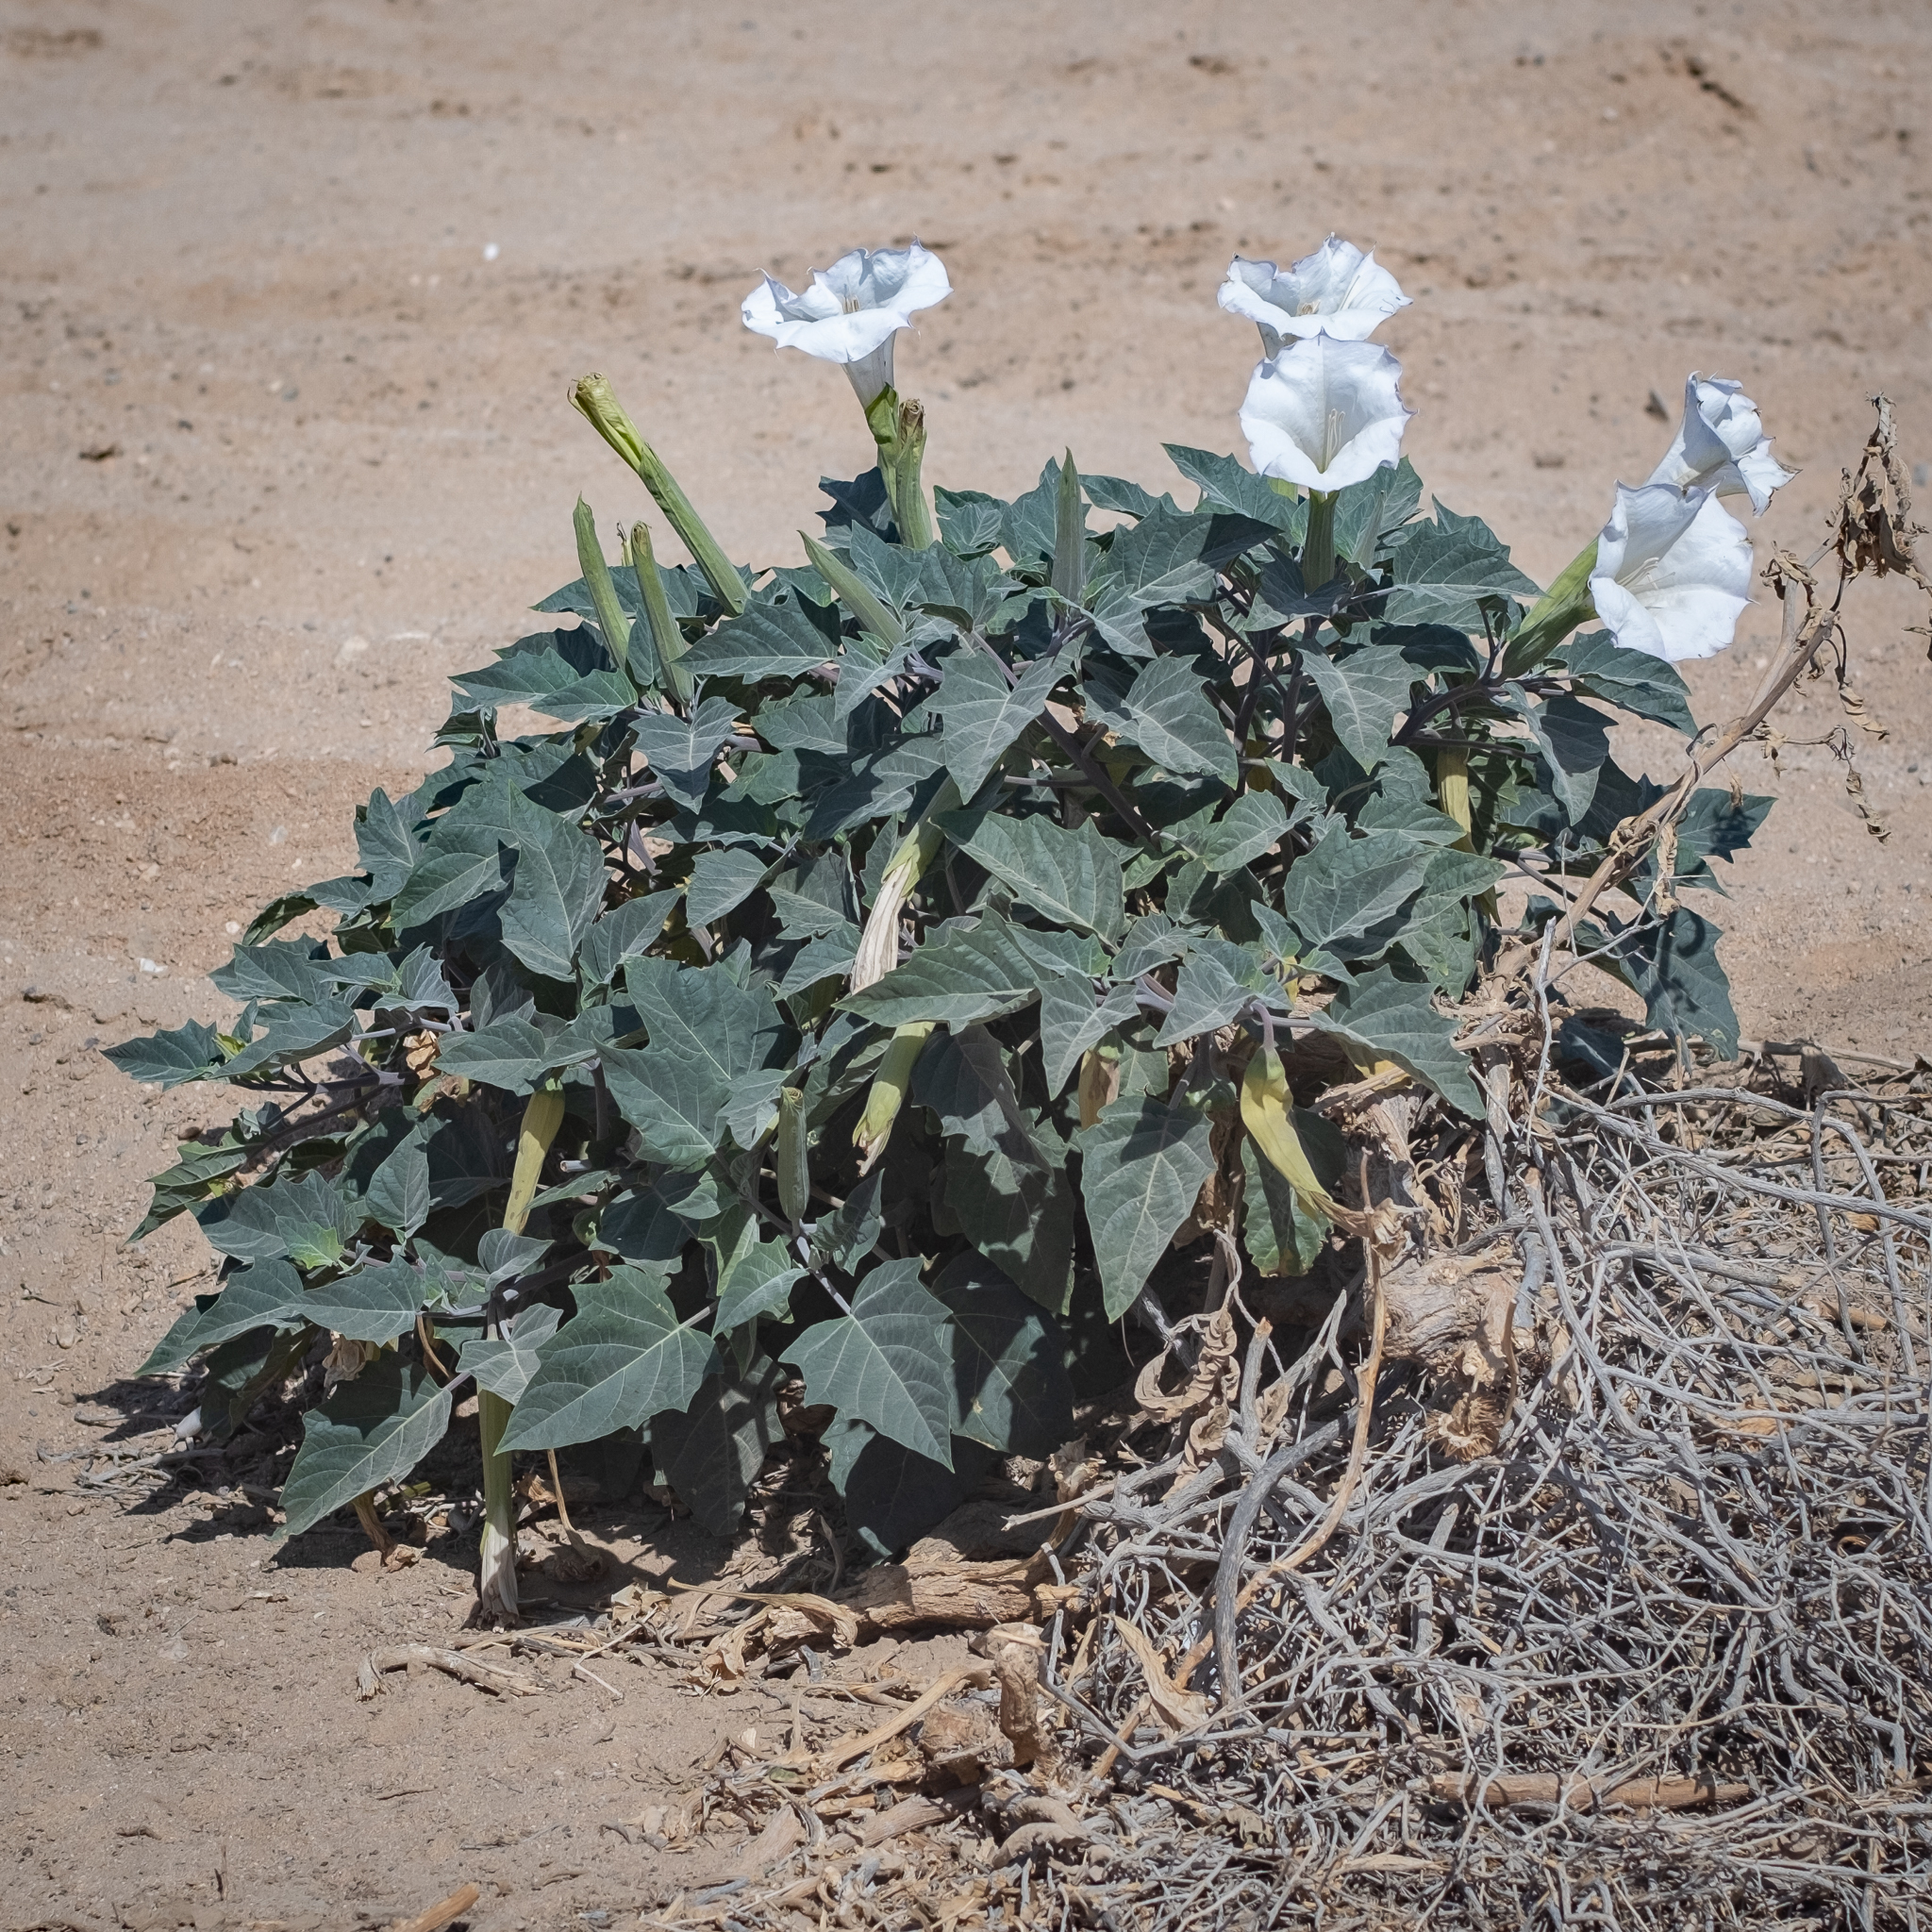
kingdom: Plantae
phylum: Tracheophyta
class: Magnoliopsida
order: Solanales
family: Solanaceae
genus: Datura
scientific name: Datura wrightii
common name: Sacred thorn-apple
